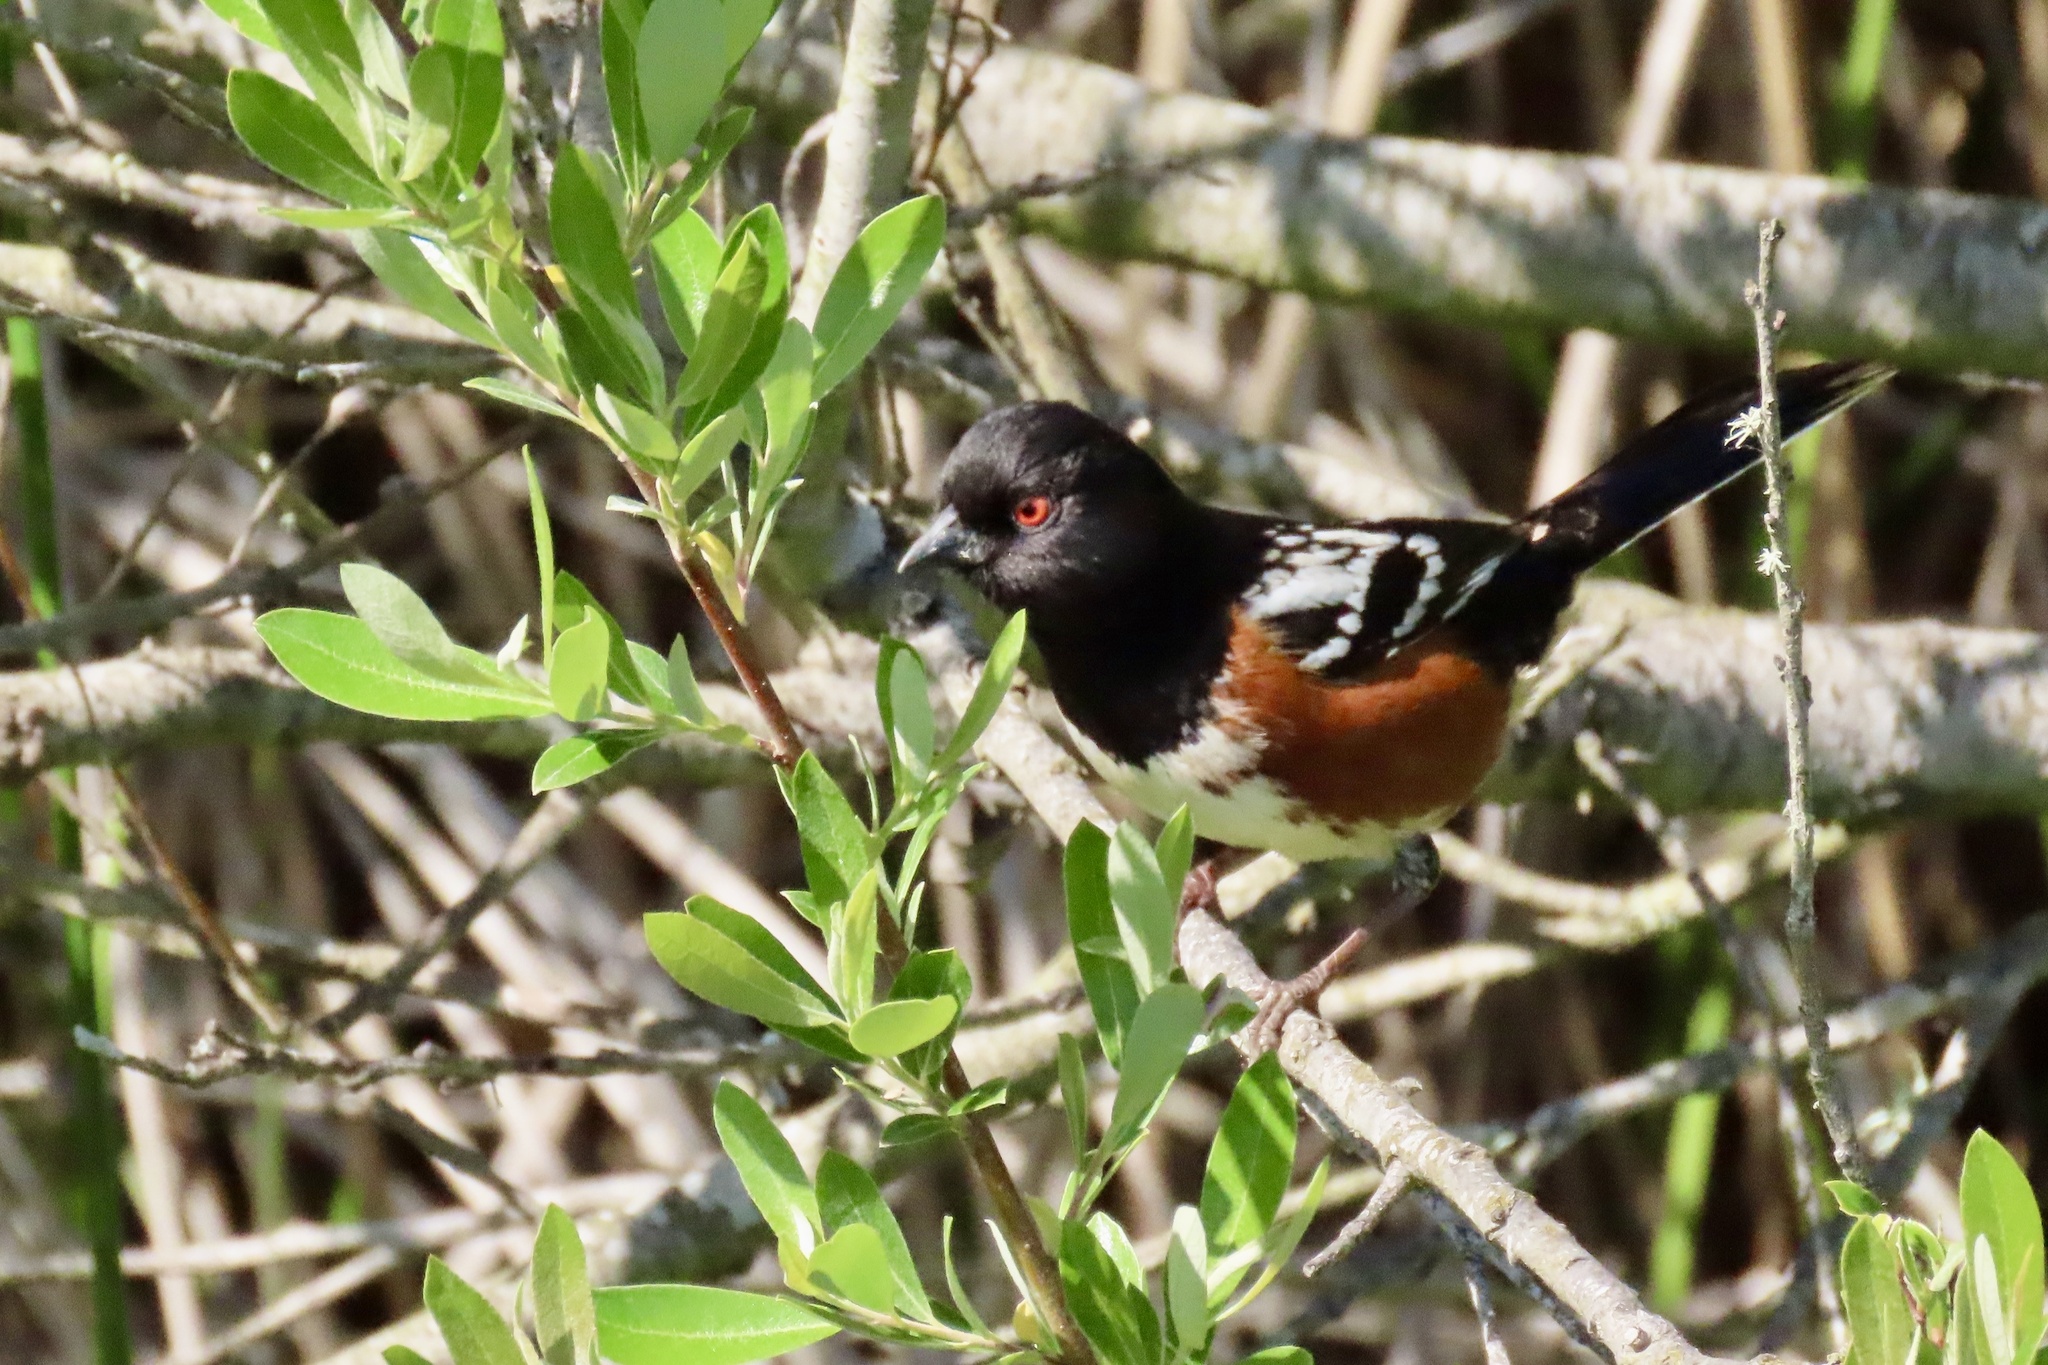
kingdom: Animalia
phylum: Chordata
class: Aves
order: Passeriformes
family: Passerellidae
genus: Pipilo
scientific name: Pipilo maculatus
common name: Spotted towhee
